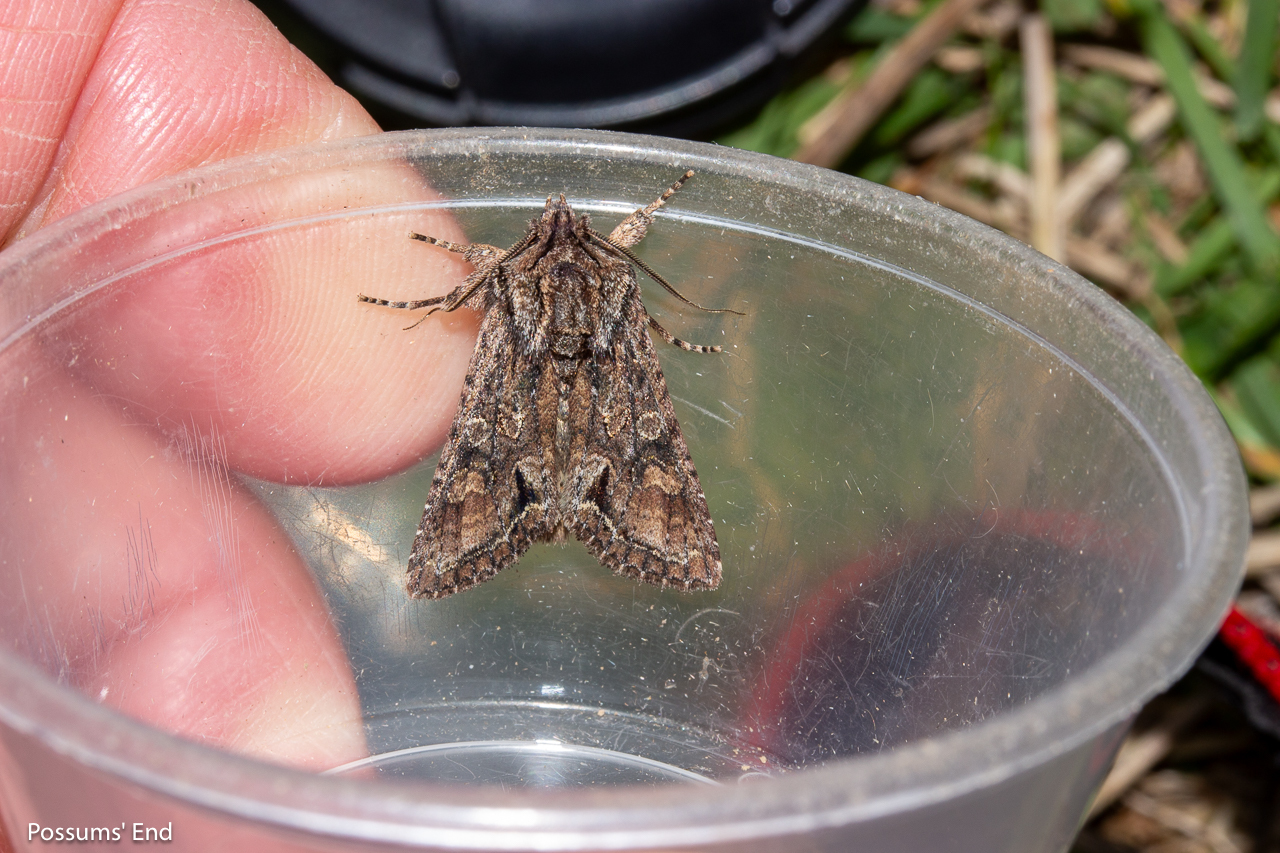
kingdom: Animalia
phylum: Arthropoda
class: Insecta
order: Lepidoptera
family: Noctuidae
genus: Ichneutica
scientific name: Ichneutica mutans
